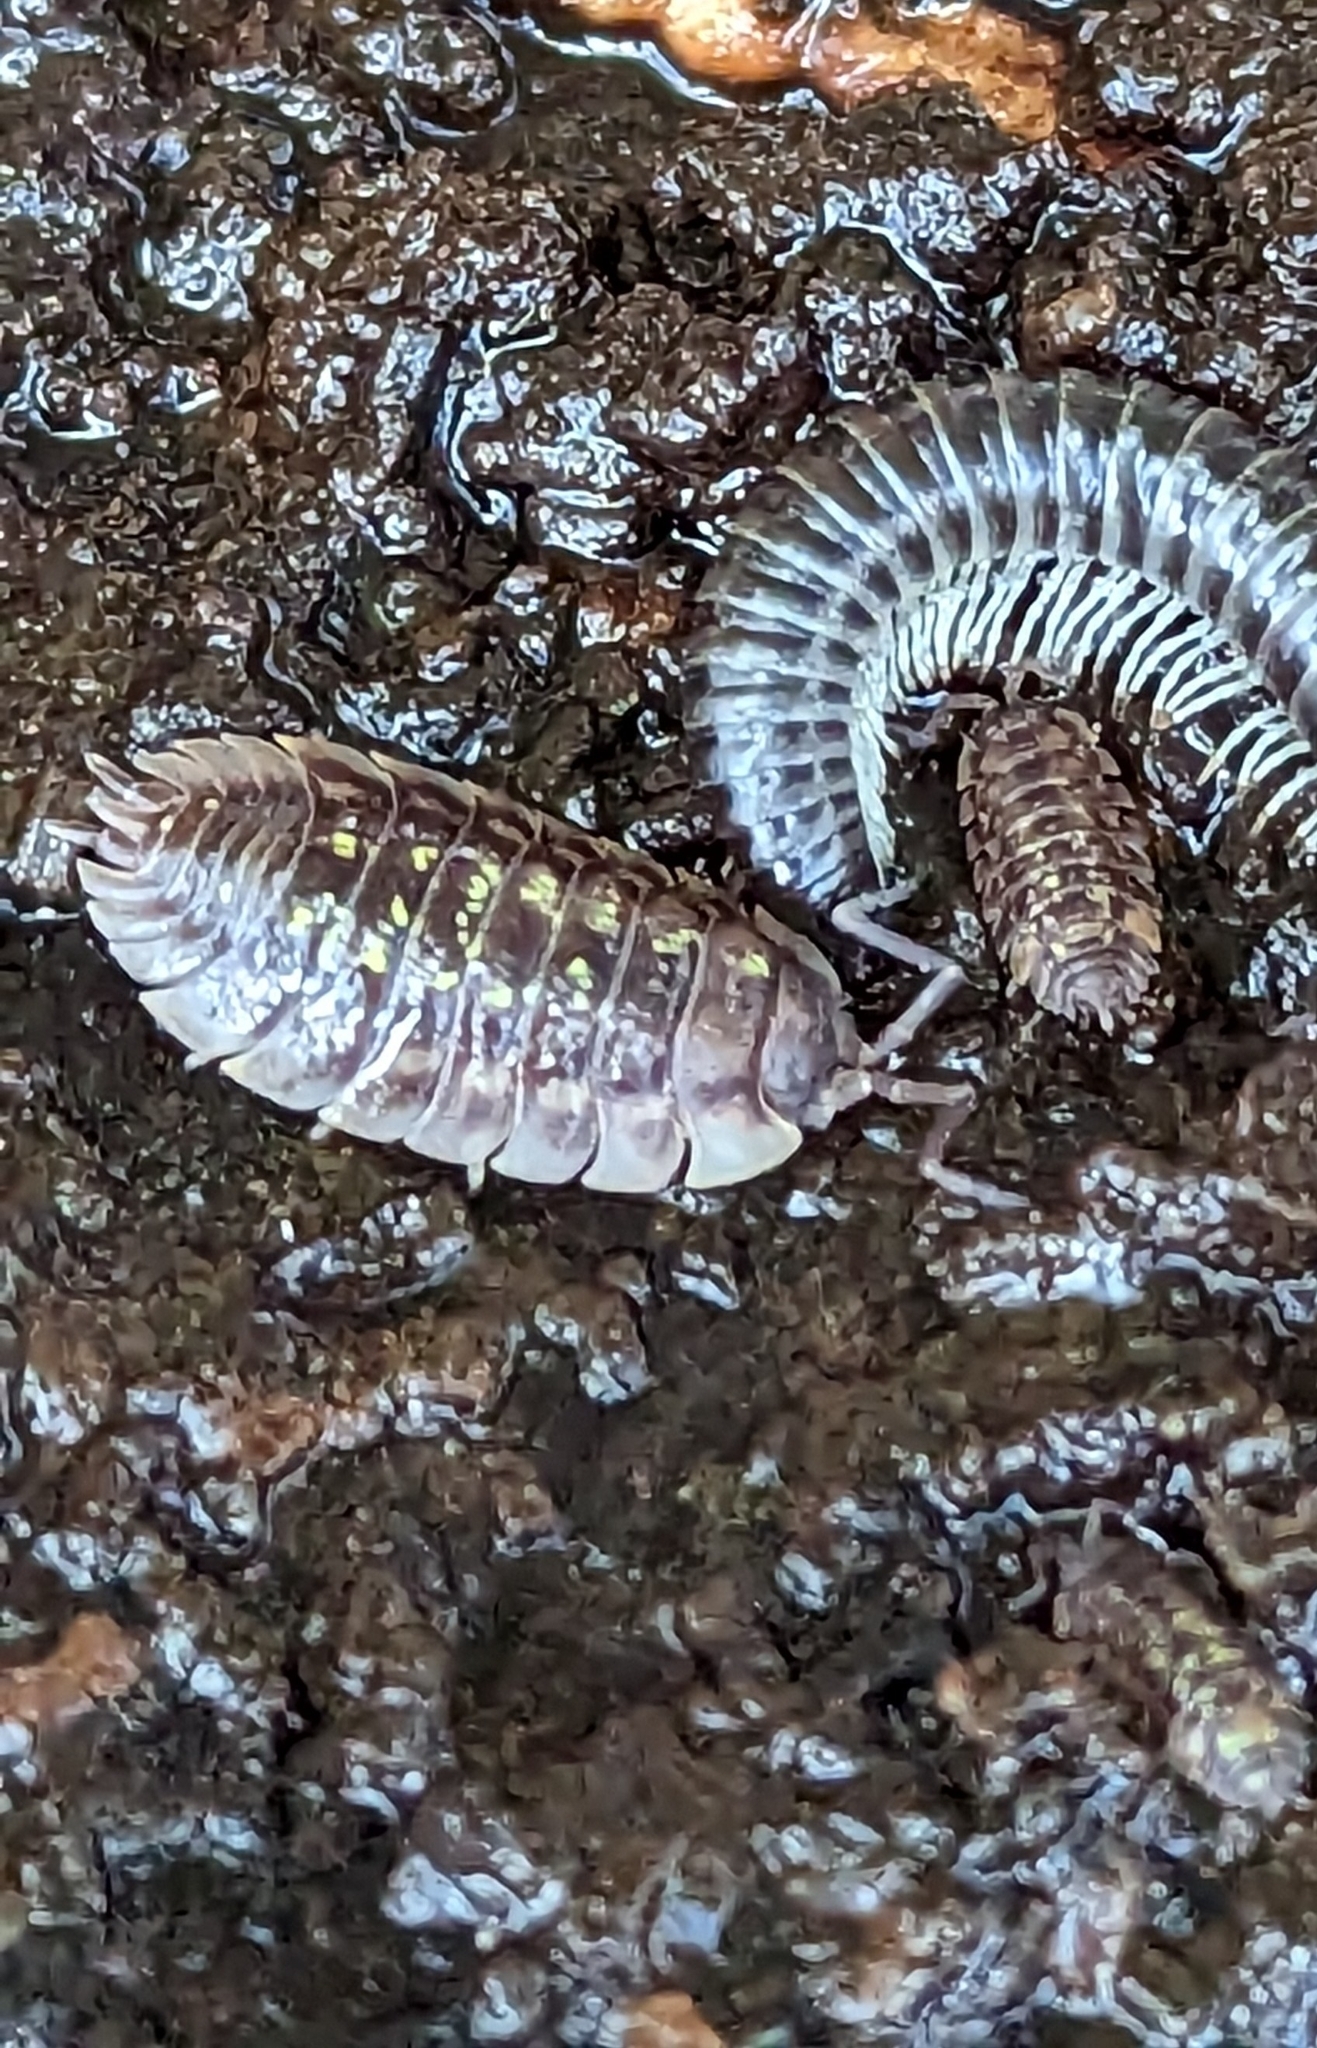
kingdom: Animalia
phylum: Arthropoda
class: Malacostraca
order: Isopoda
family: Oniscidae
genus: Oniscus
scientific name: Oniscus asellus
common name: Common shiny woodlouse
